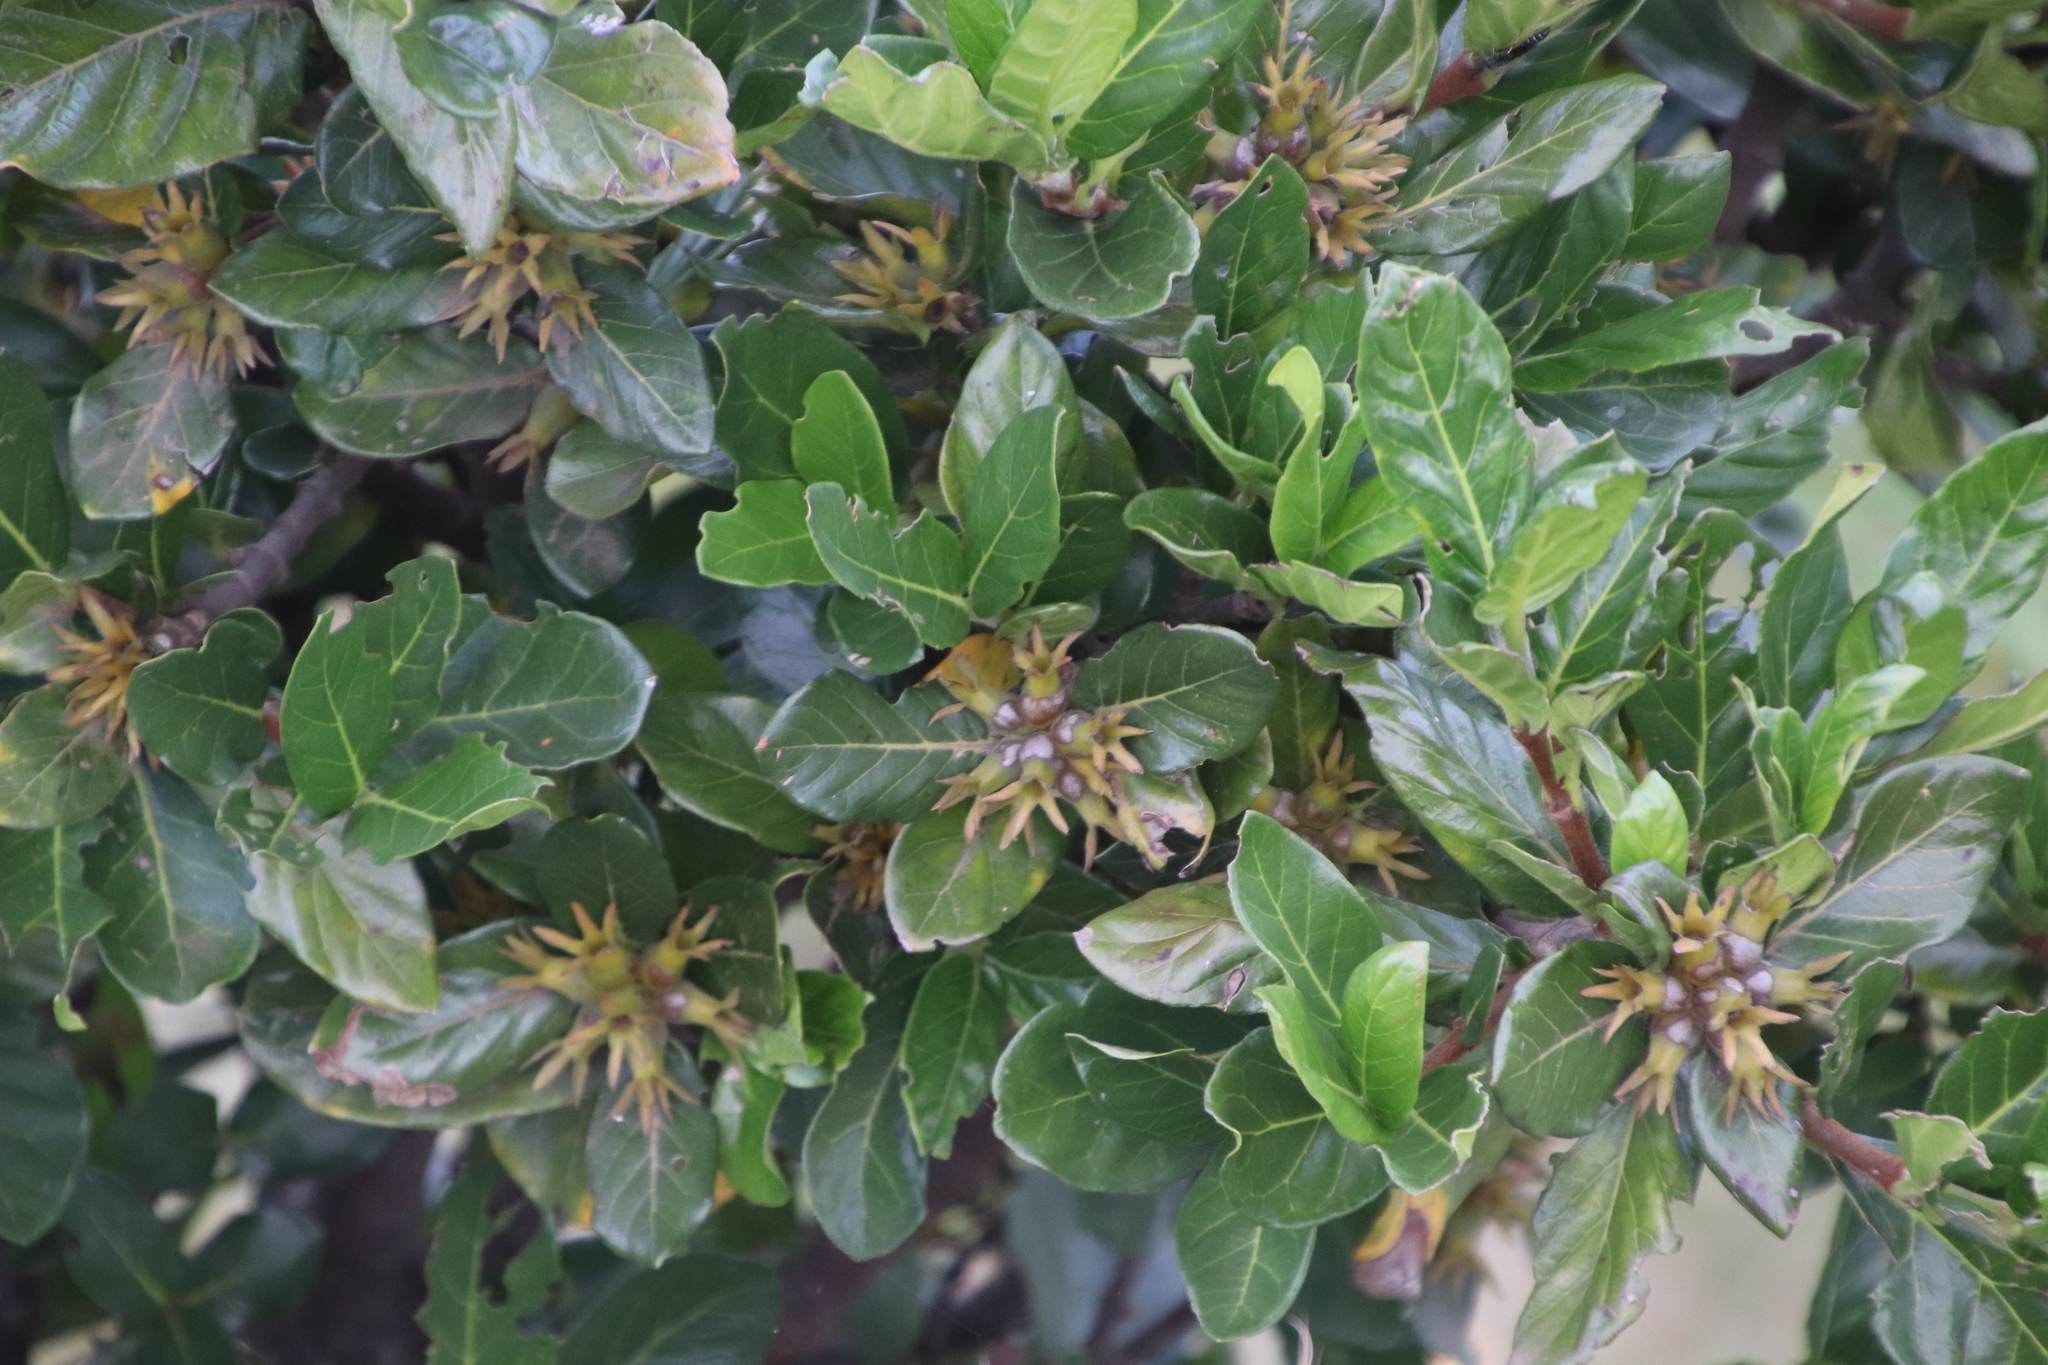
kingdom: Plantae
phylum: Tracheophyta
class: Magnoliopsida
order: Gentianales
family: Rubiaceae
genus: Burchellia
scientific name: Burchellia bubalina
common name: Wild pomegranate
